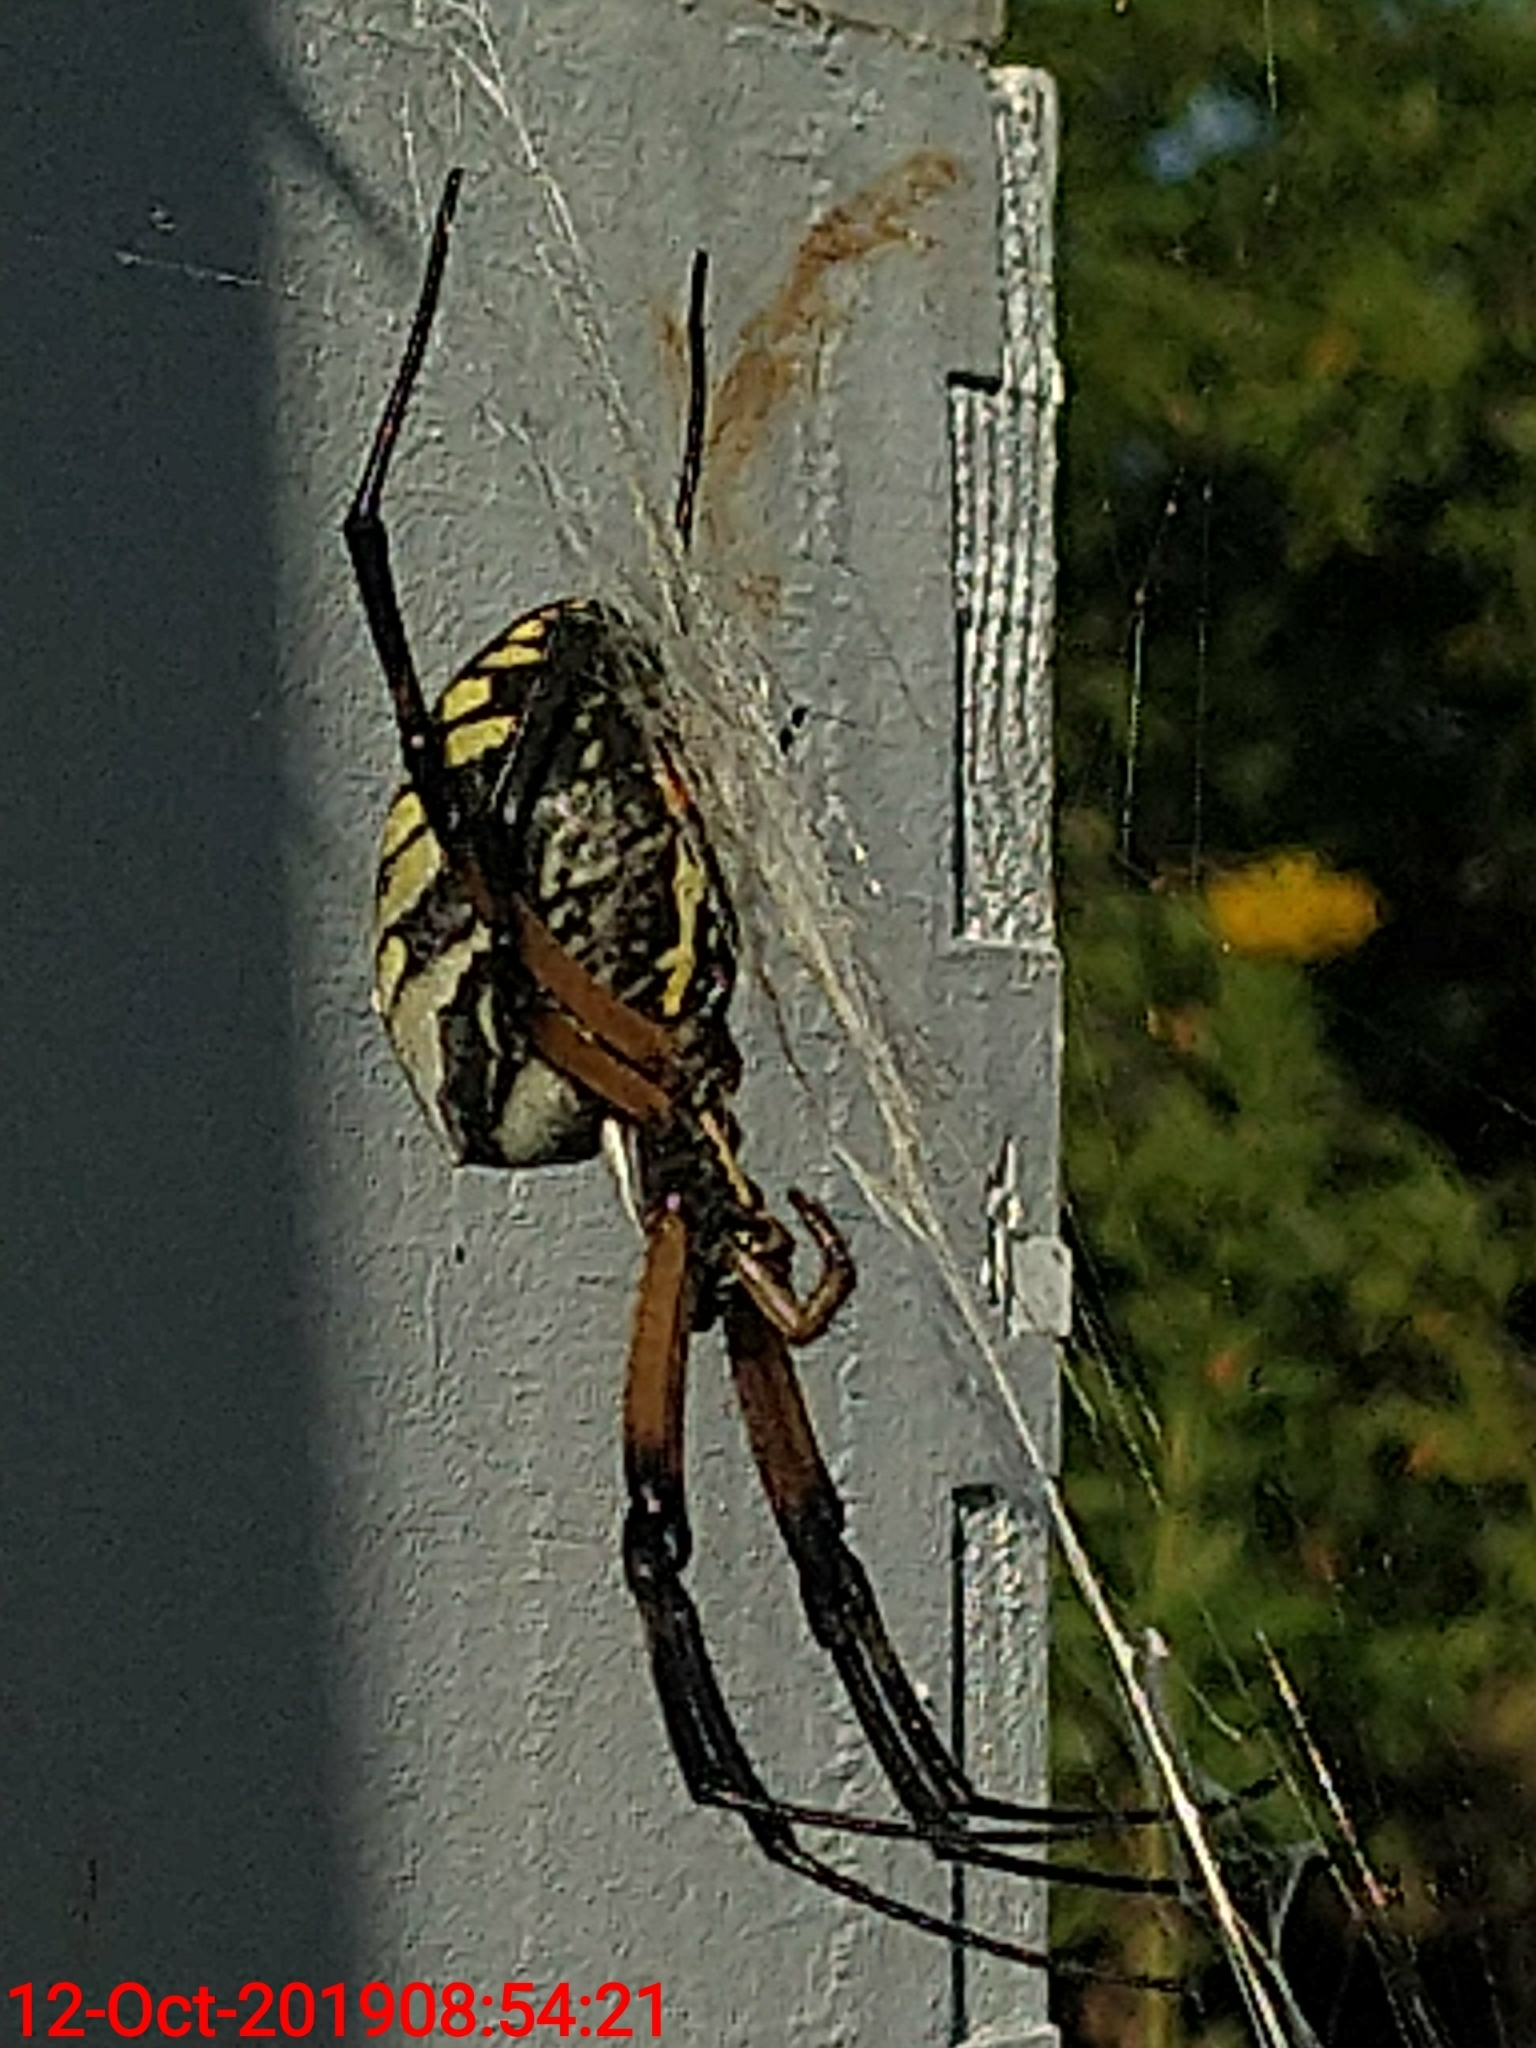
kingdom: Animalia
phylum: Arthropoda
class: Arachnida
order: Araneae
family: Araneidae
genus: Argiope
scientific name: Argiope aurantia
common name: Orb weavers
